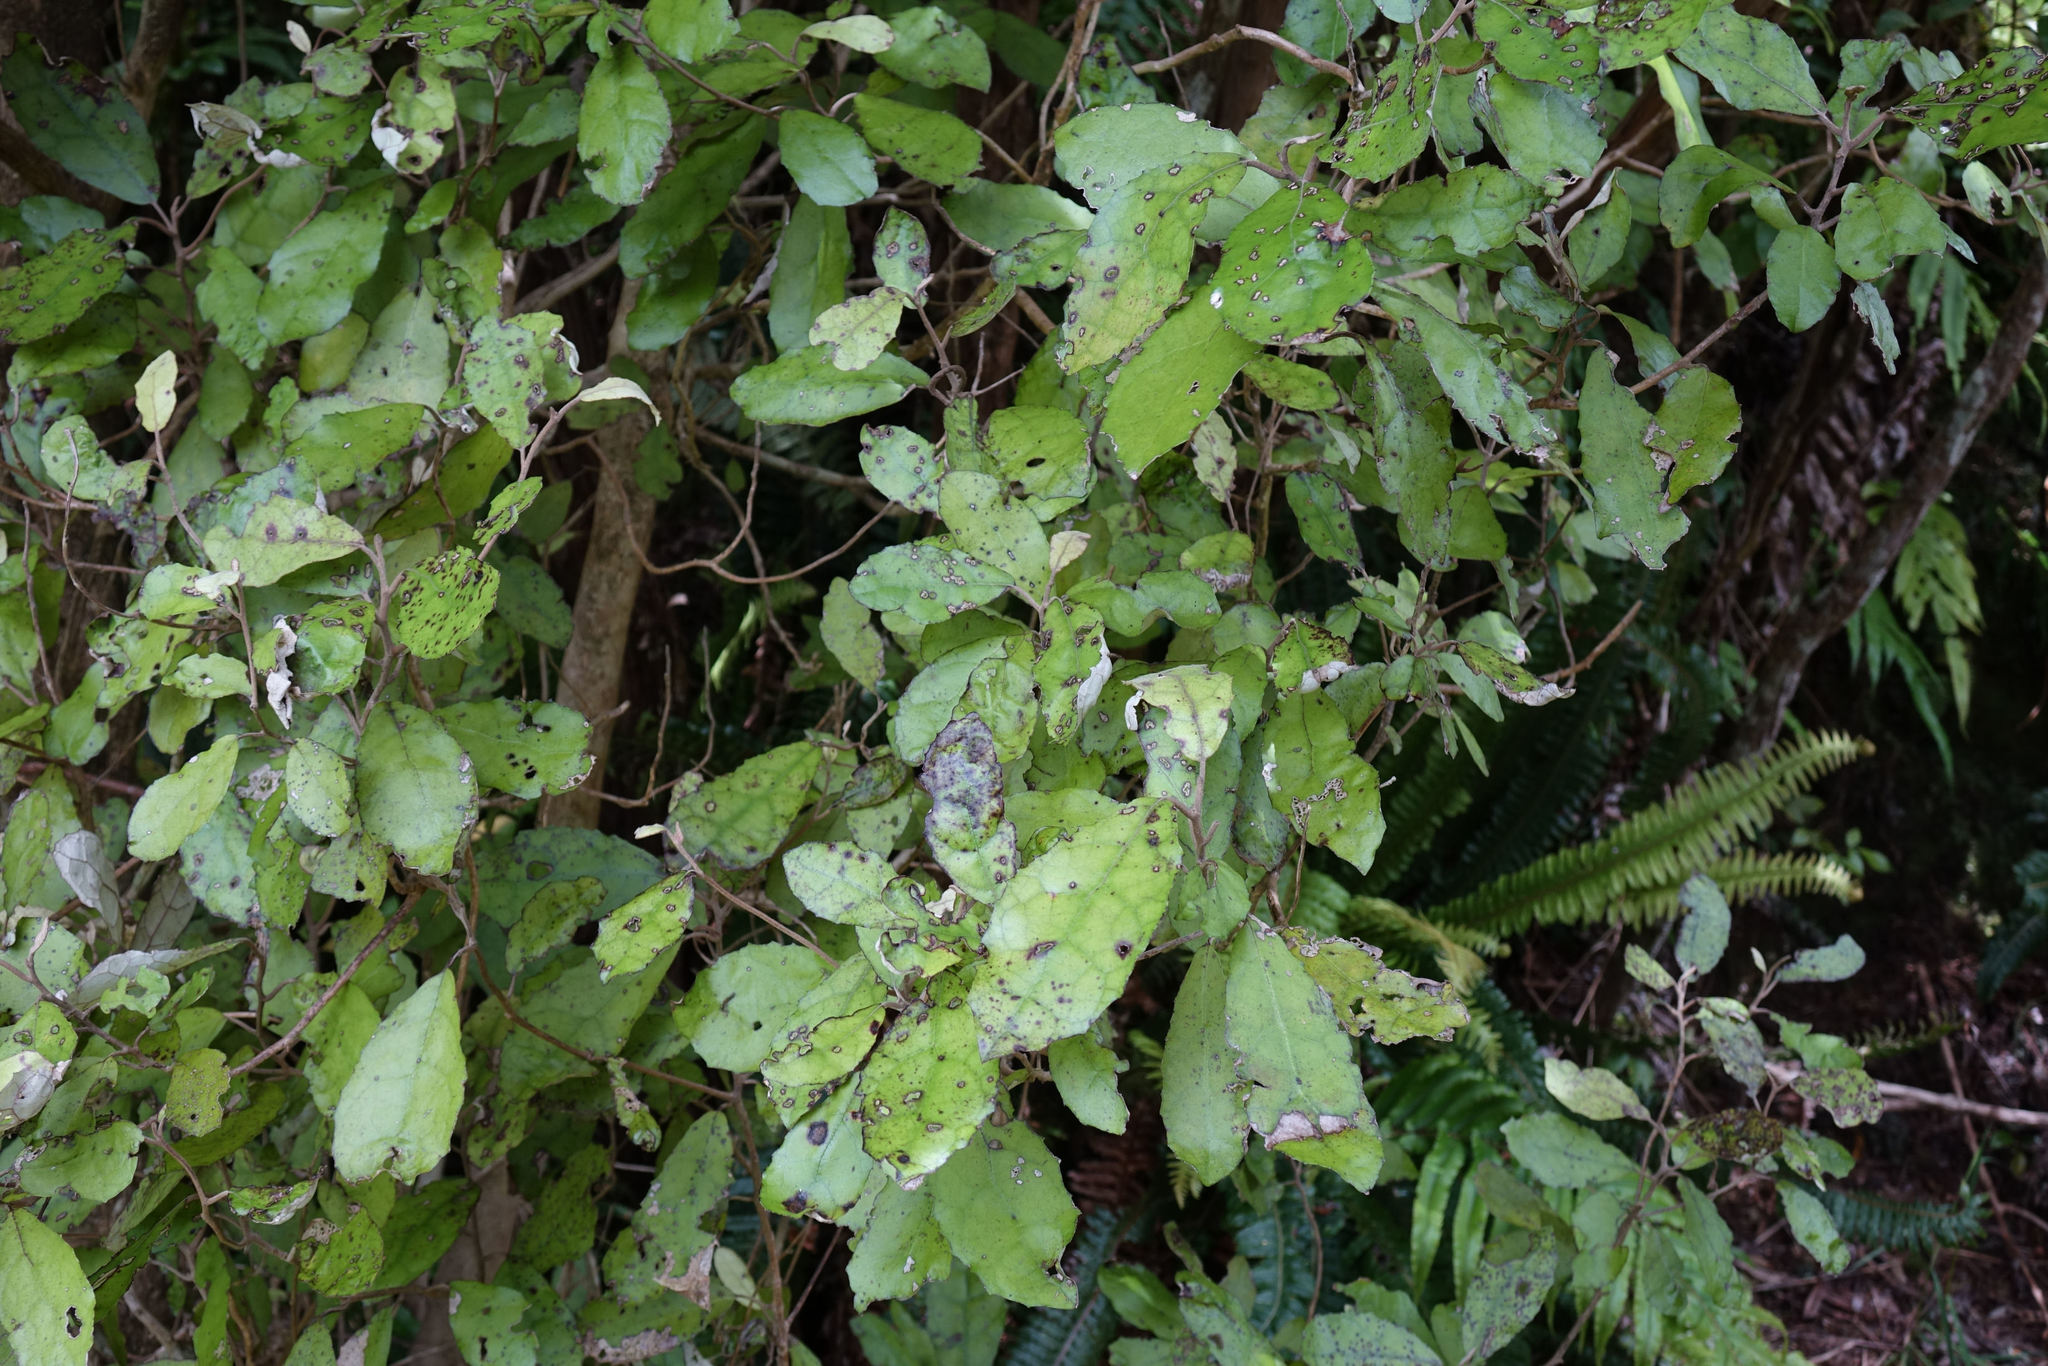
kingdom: Plantae
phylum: Tracheophyta
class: Magnoliopsida
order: Asterales
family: Asteraceae
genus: Olearia
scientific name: Olearia rani
